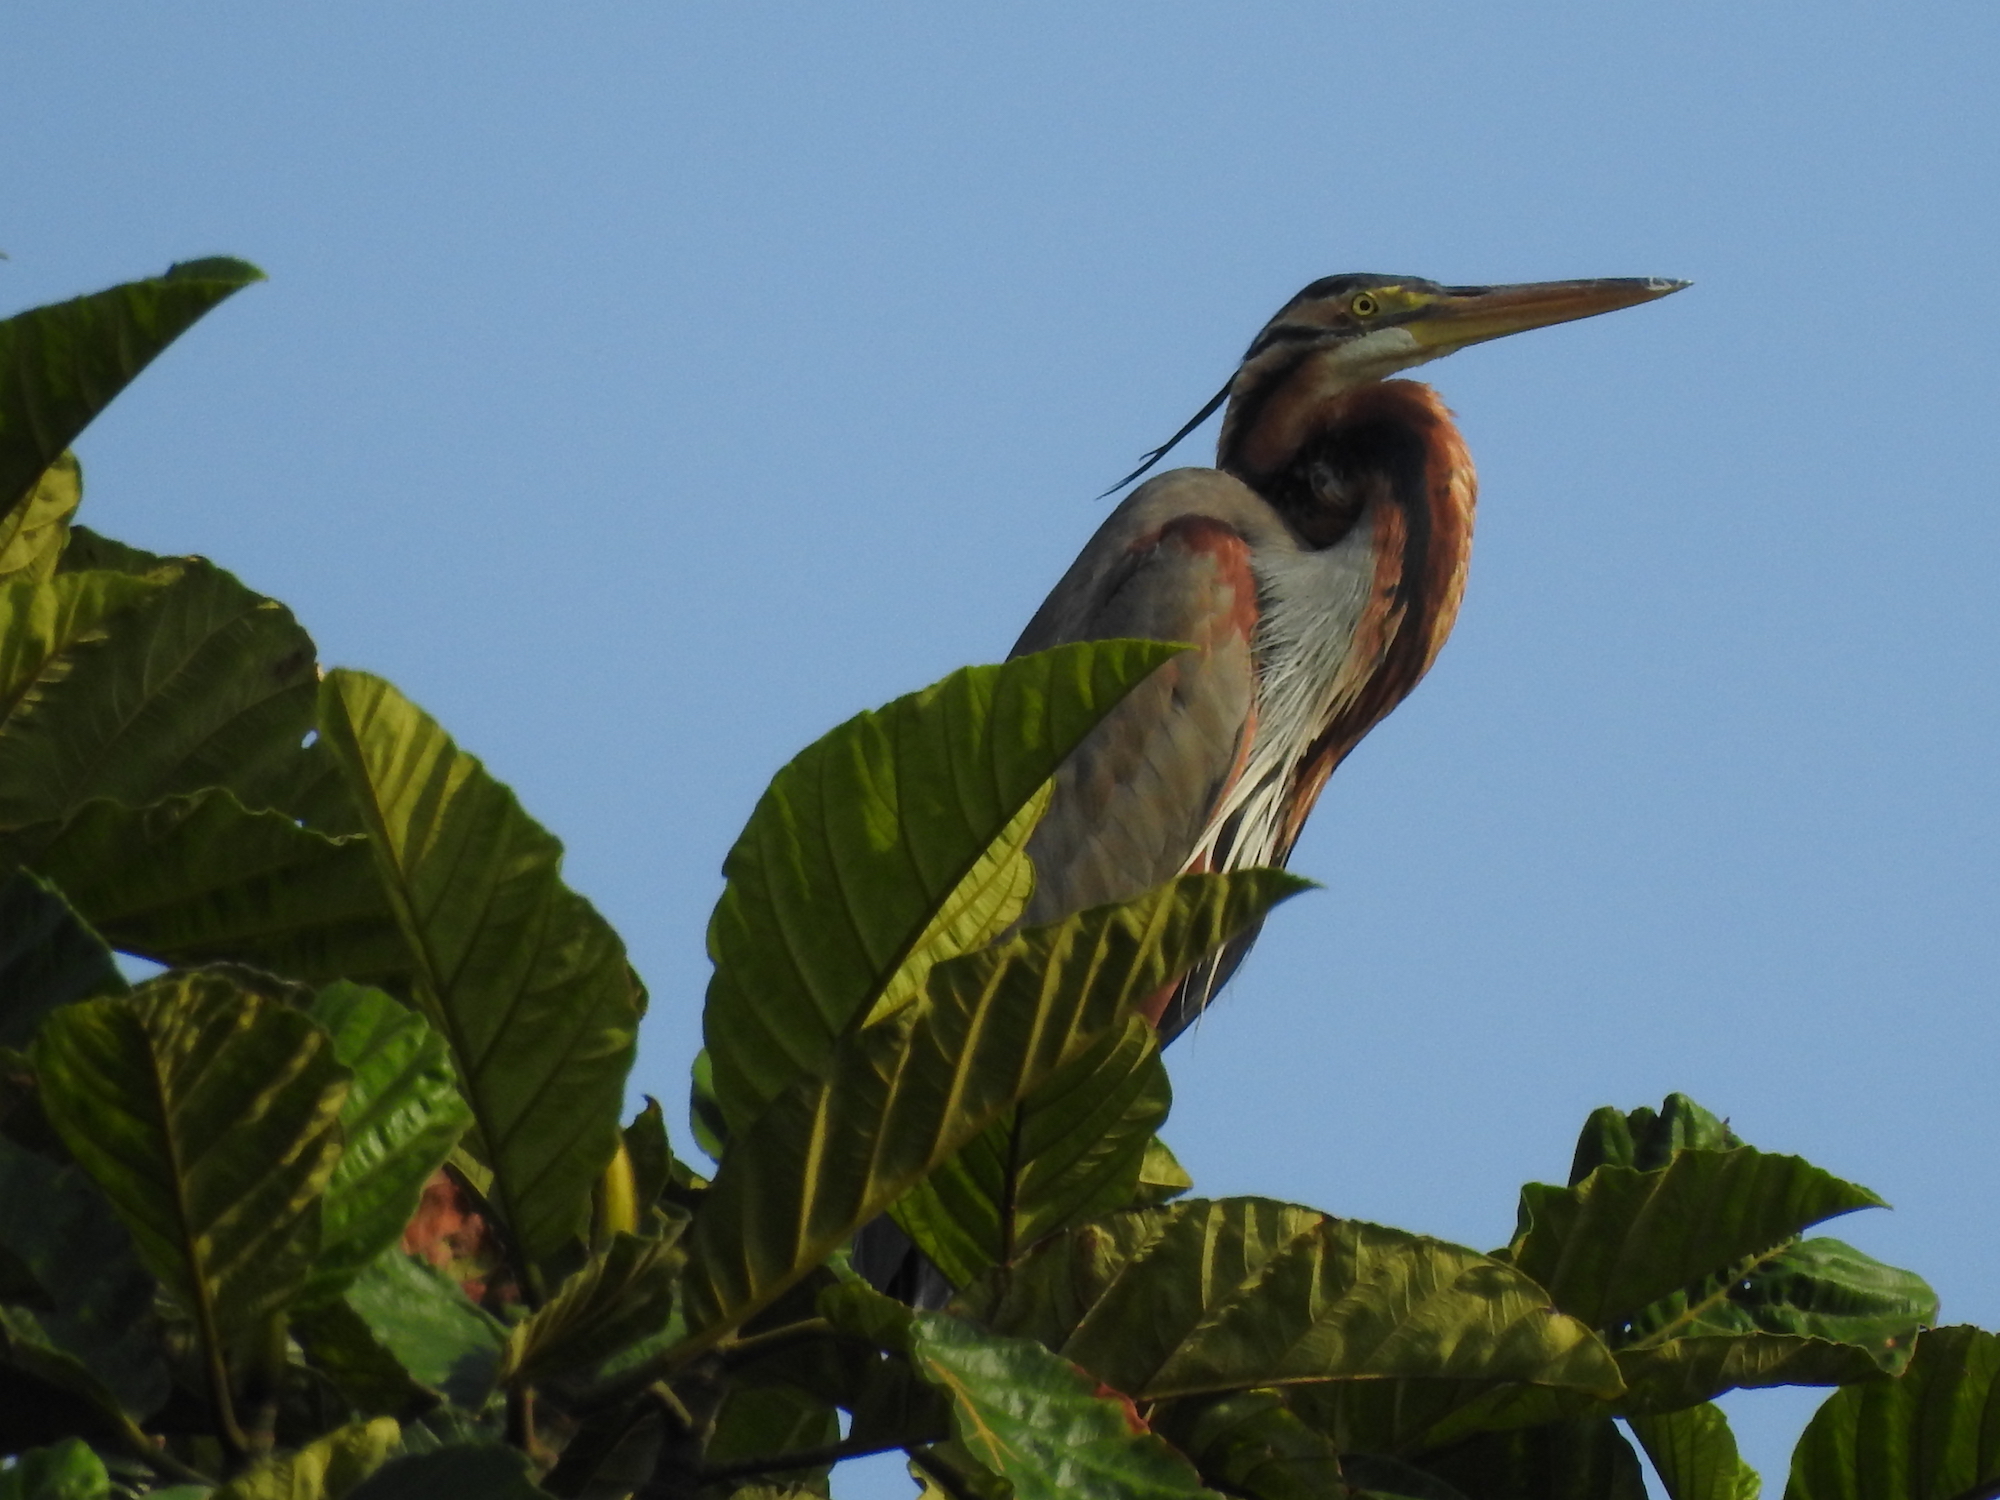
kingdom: Animalia
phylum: Chordata
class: Aves
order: Pelecaniformes
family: Ardeidae
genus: Ardea
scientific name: Ardea purpurea
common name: Purple heron
